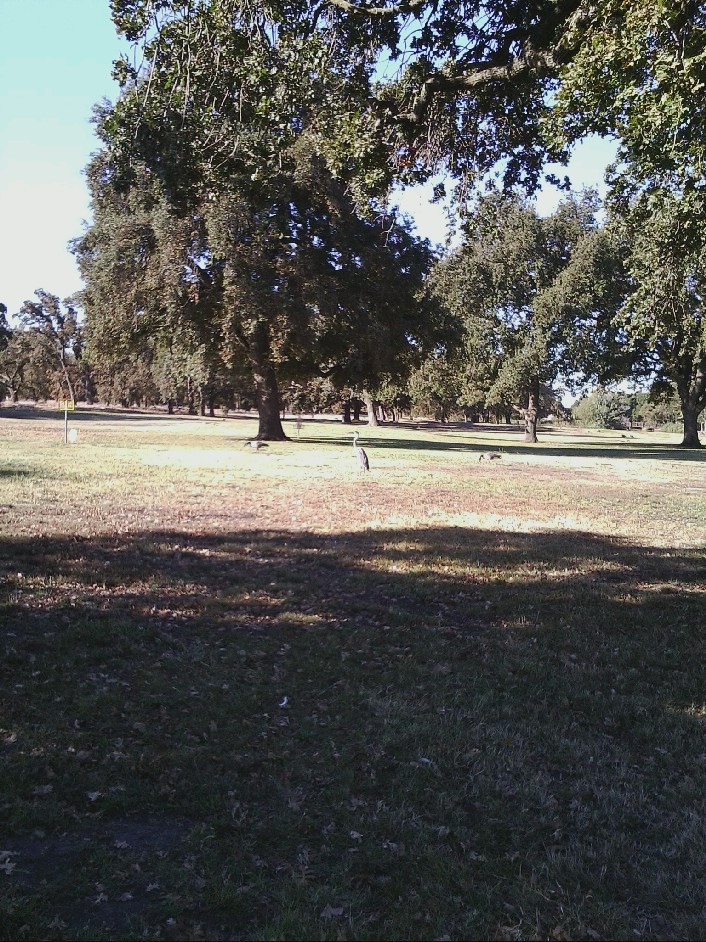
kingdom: Animalia
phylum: Chordata
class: Aves
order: Pelecaniformes
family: Ardeidae
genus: Ardea
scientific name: Ardea herodias
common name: Great blue heron
